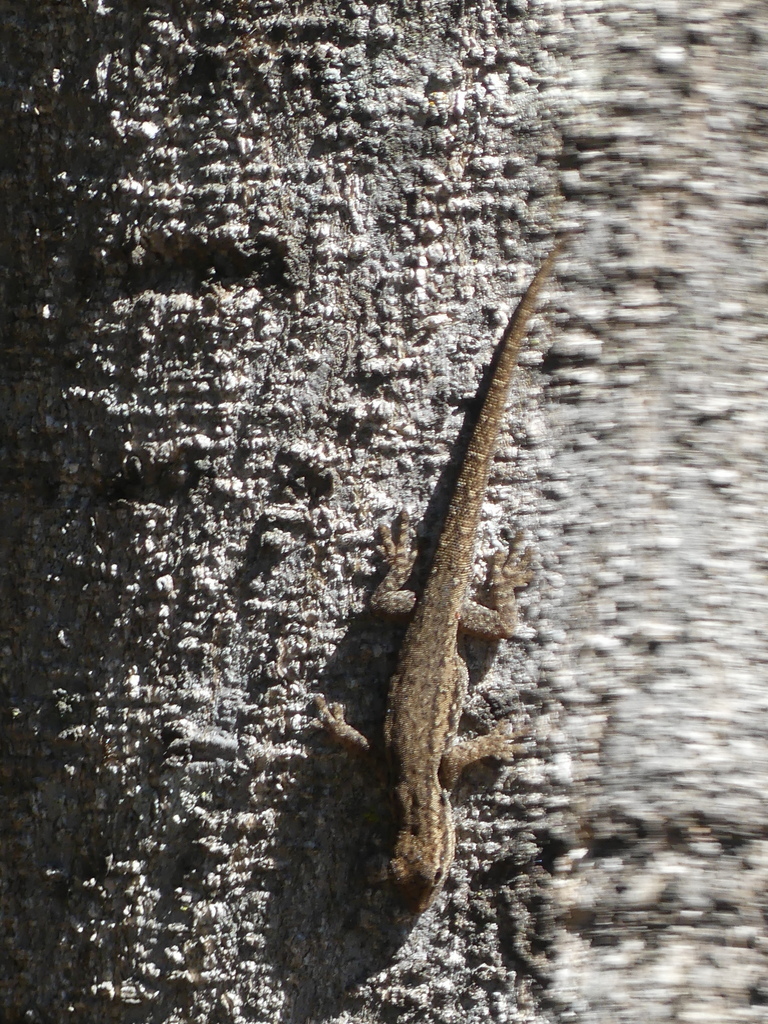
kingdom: Animalia
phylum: Chordata
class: Squamata
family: Gekkonidae
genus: Lygodactylus
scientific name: Lygodactylus capensis
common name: Cape dwarf gecko
